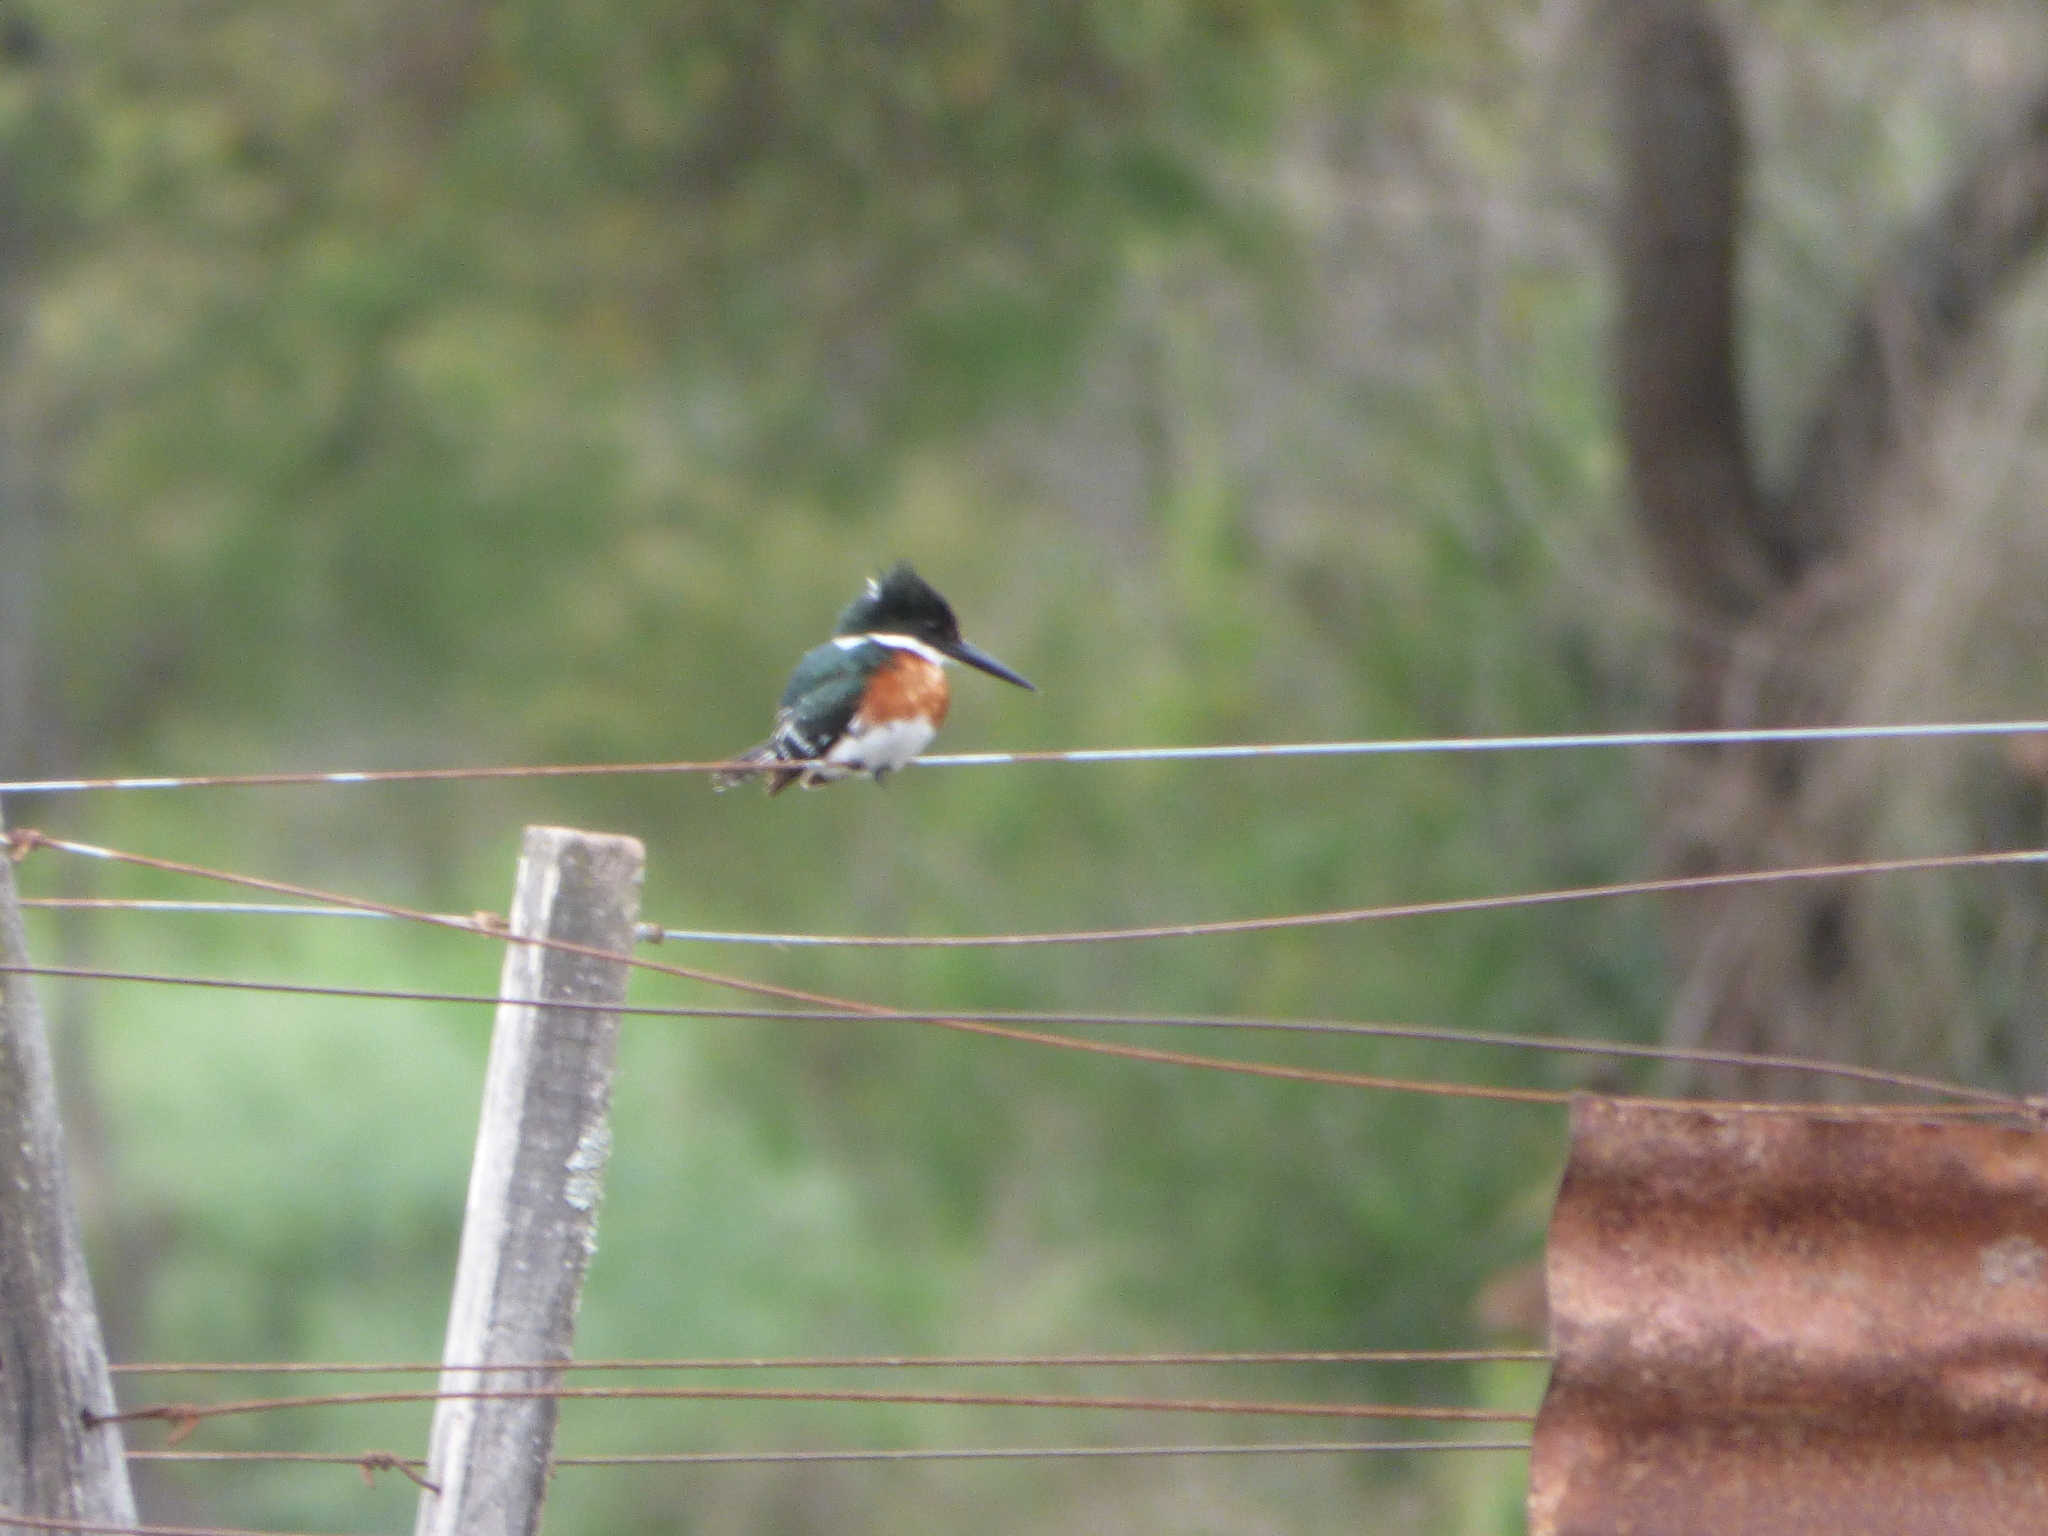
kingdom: Animalia
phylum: Chordata
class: Aves
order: Coraciiformes
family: Alcedinidae
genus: Chloroceryle
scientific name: Chloroceryle americana
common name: Green kingfisher
